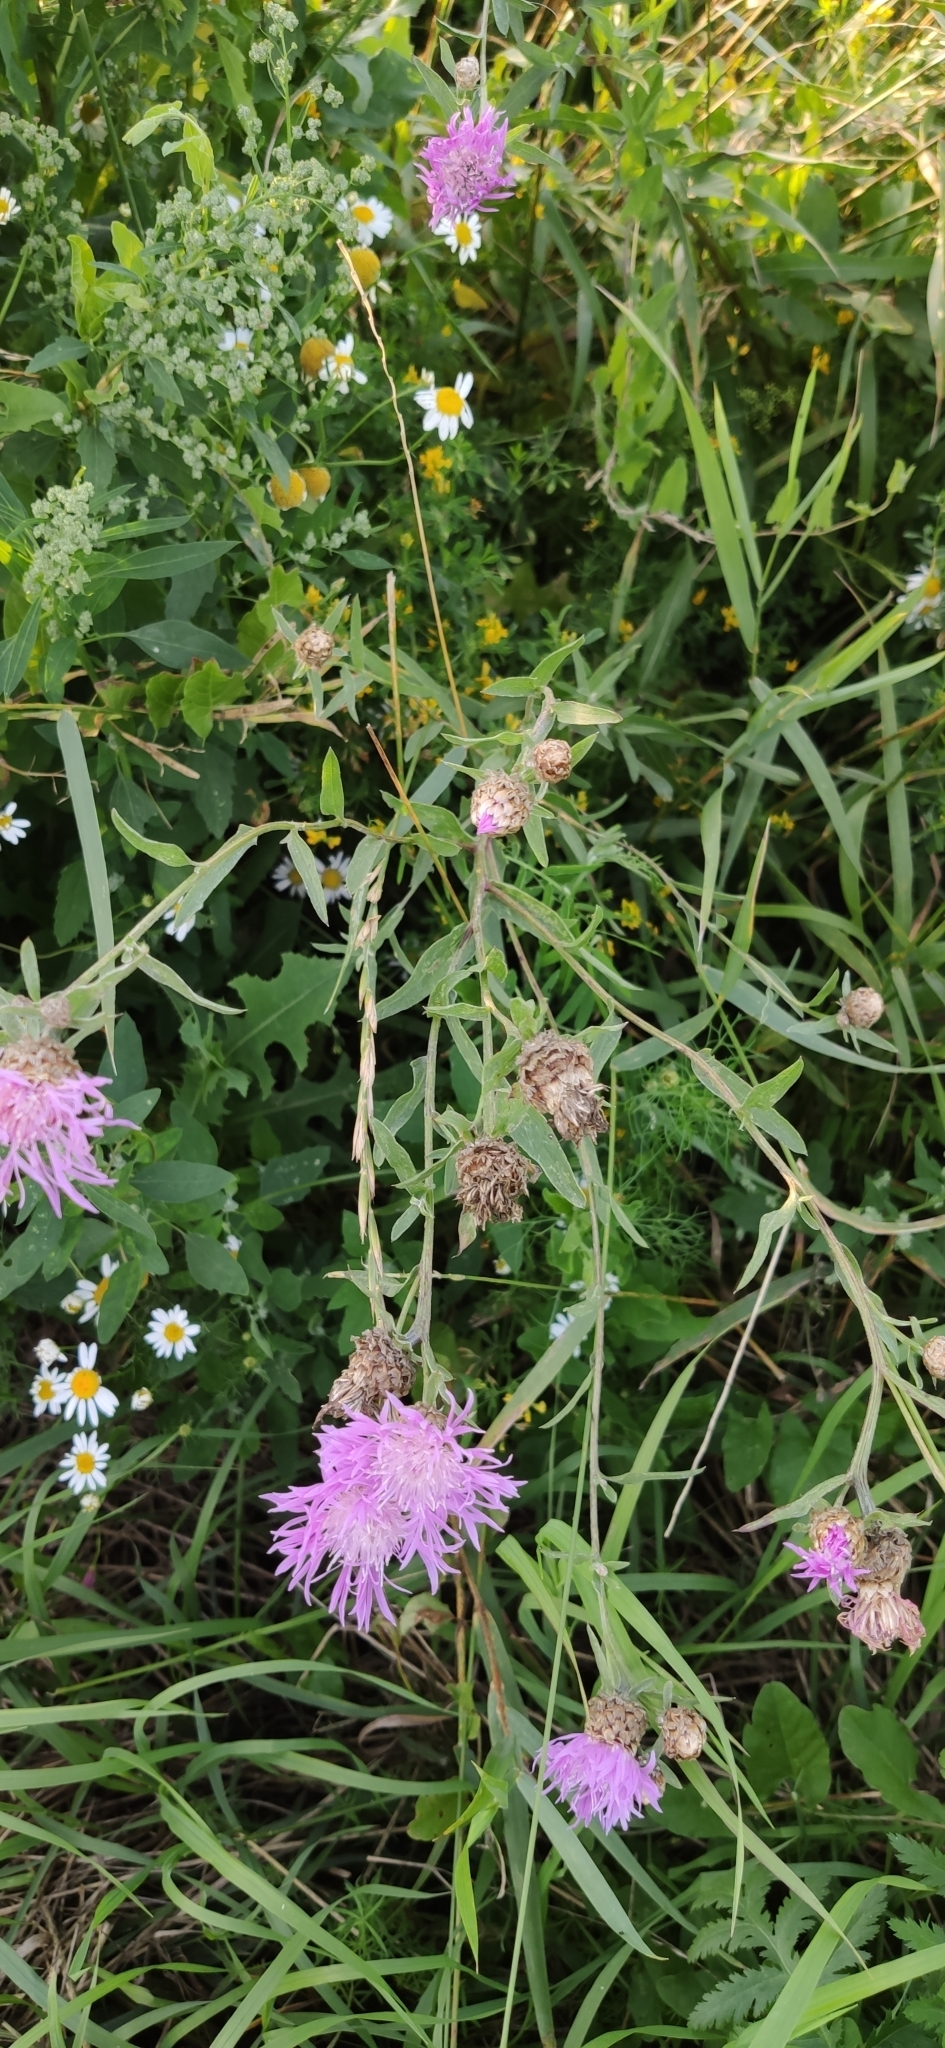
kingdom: Plantae
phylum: Tracheophyta
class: Magnoliopsida
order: Asterales
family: Asteraceae
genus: Centaurea
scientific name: Centaurea jacea
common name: Brown knapweed
